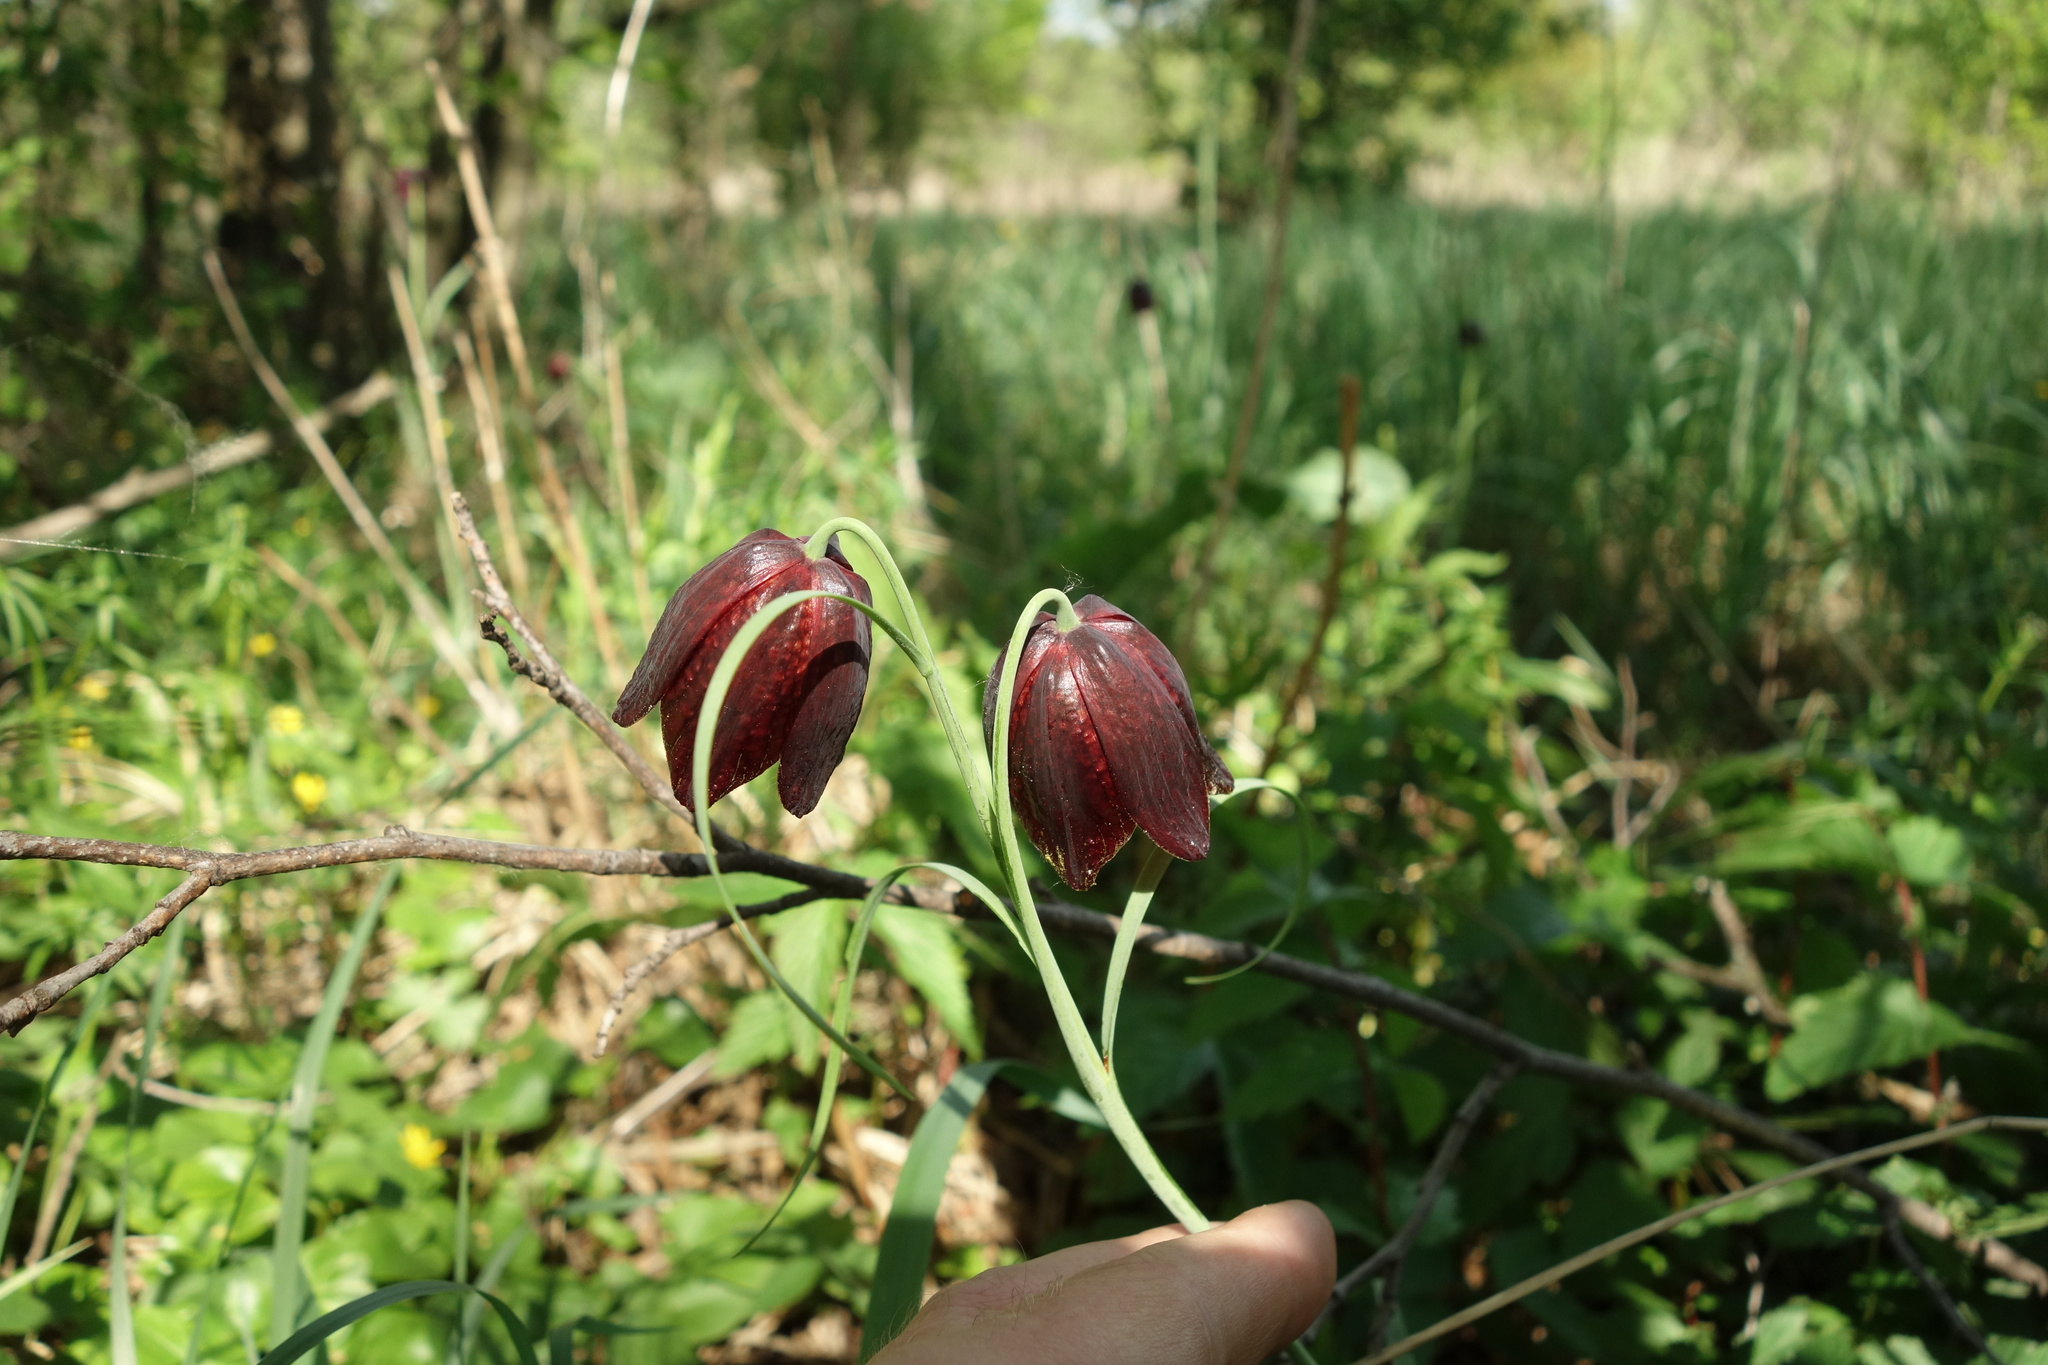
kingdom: Plantae
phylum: Tracheophyta
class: Liliopsida
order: Liliales
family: Liliaceae
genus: Fritillaria
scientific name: Fritillaria meleagroides
